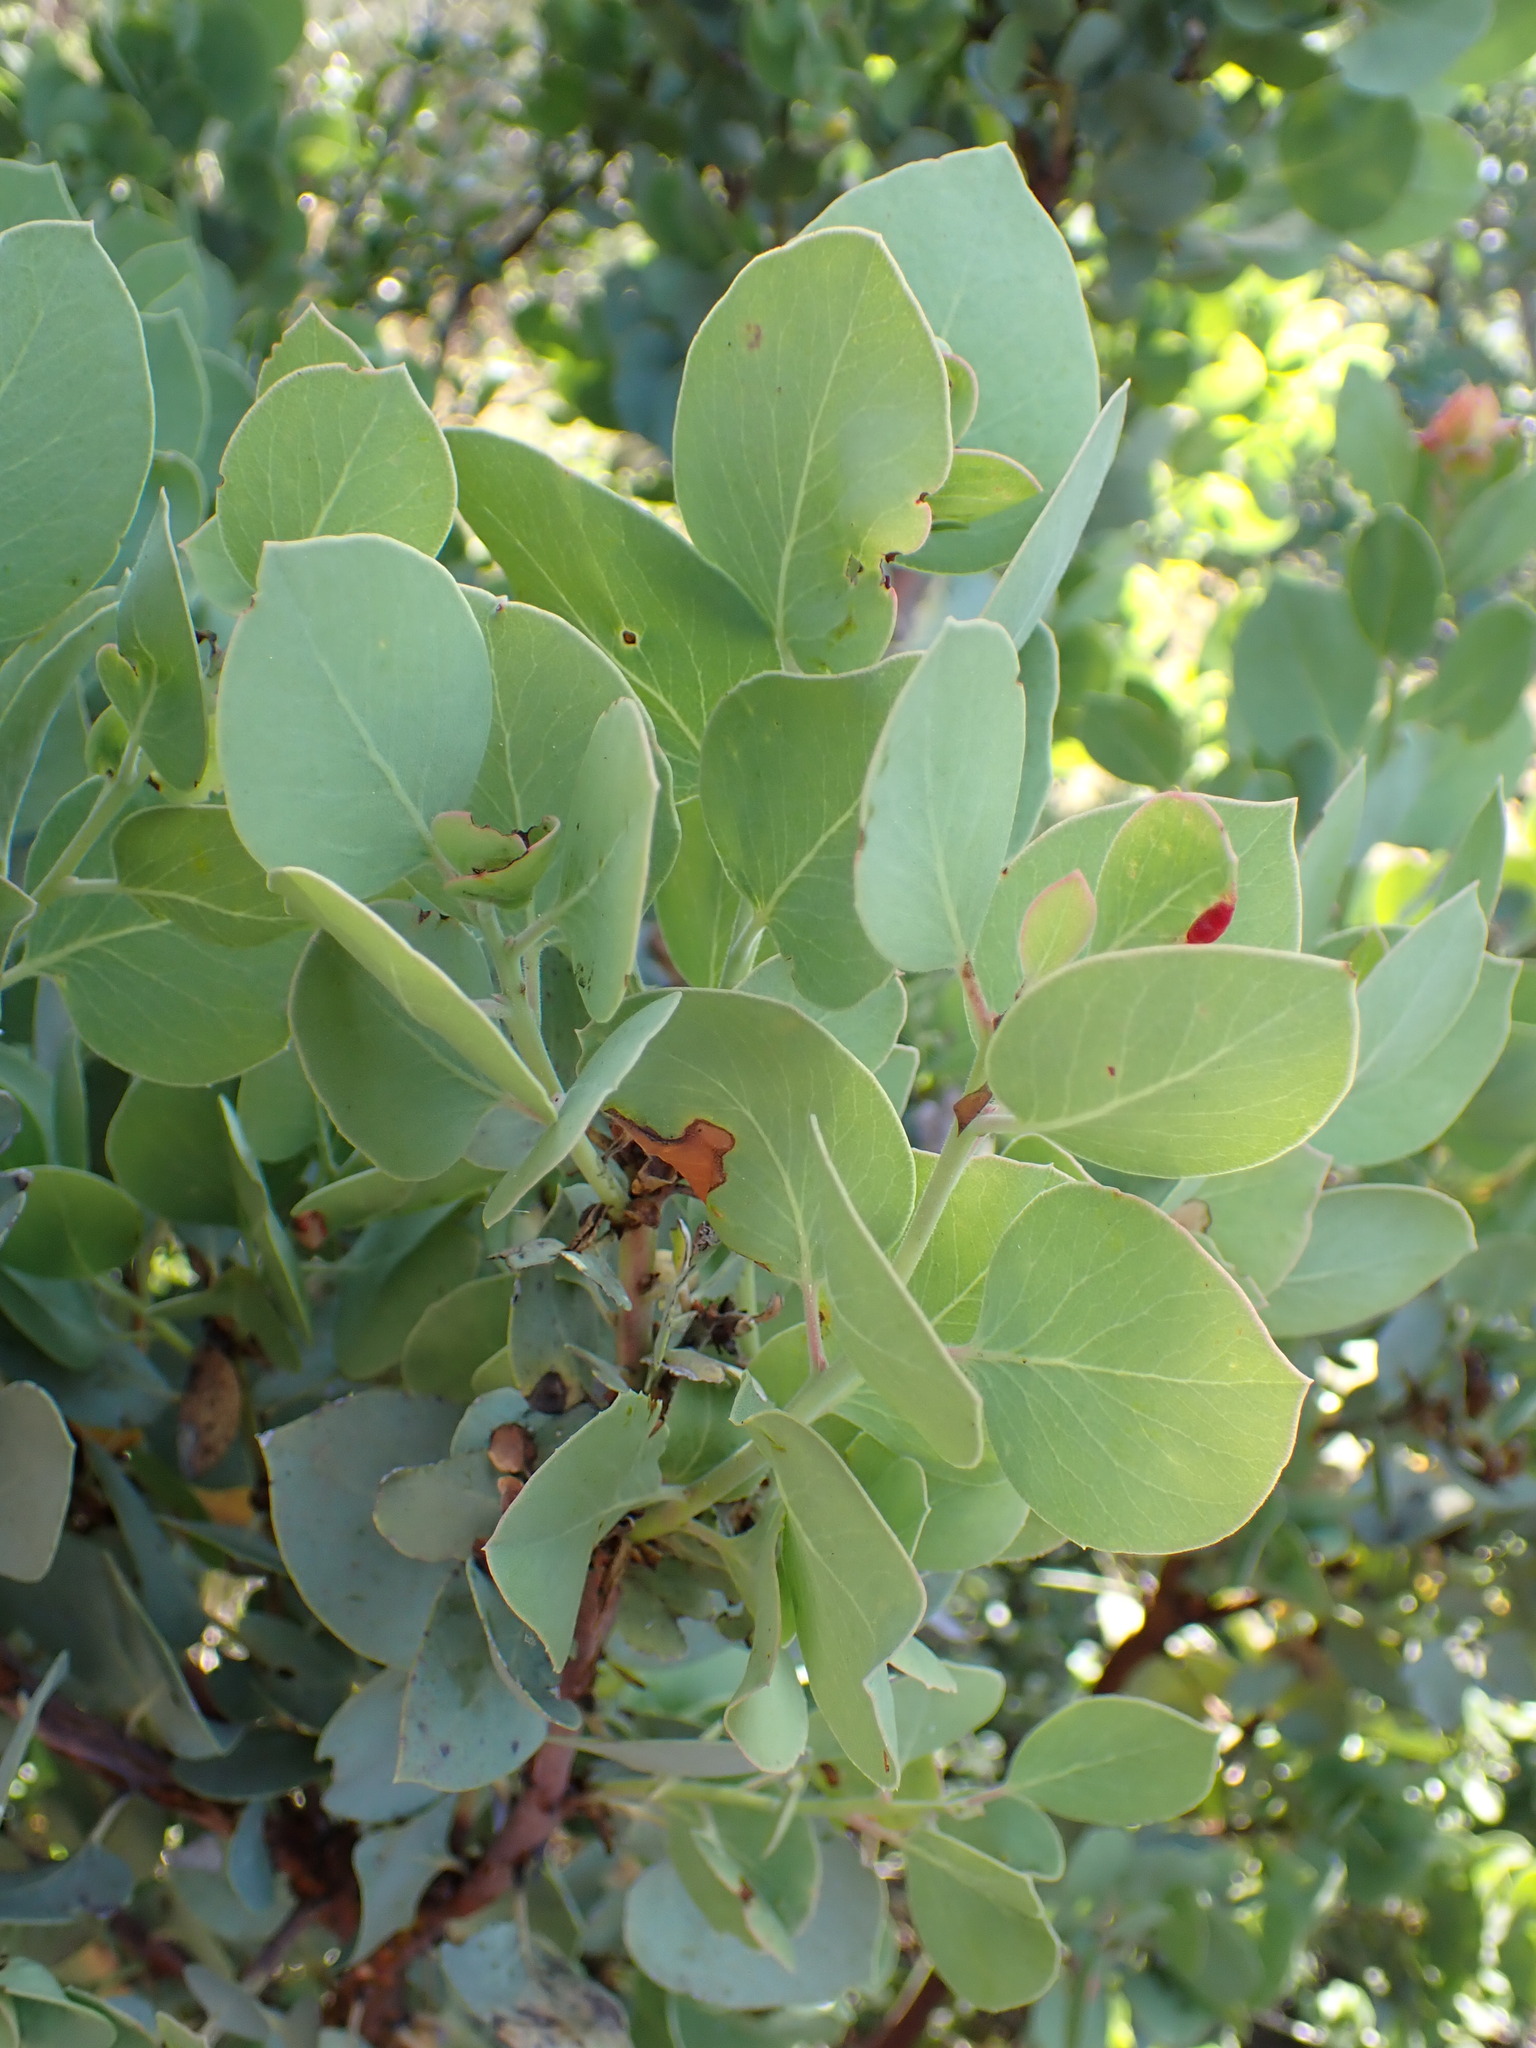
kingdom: Plantae
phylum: Tracheophyta
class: Magnoliopsida
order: Ericales
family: Ericaceae
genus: Arctostaphylos
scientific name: Arctostaphylos glauca
